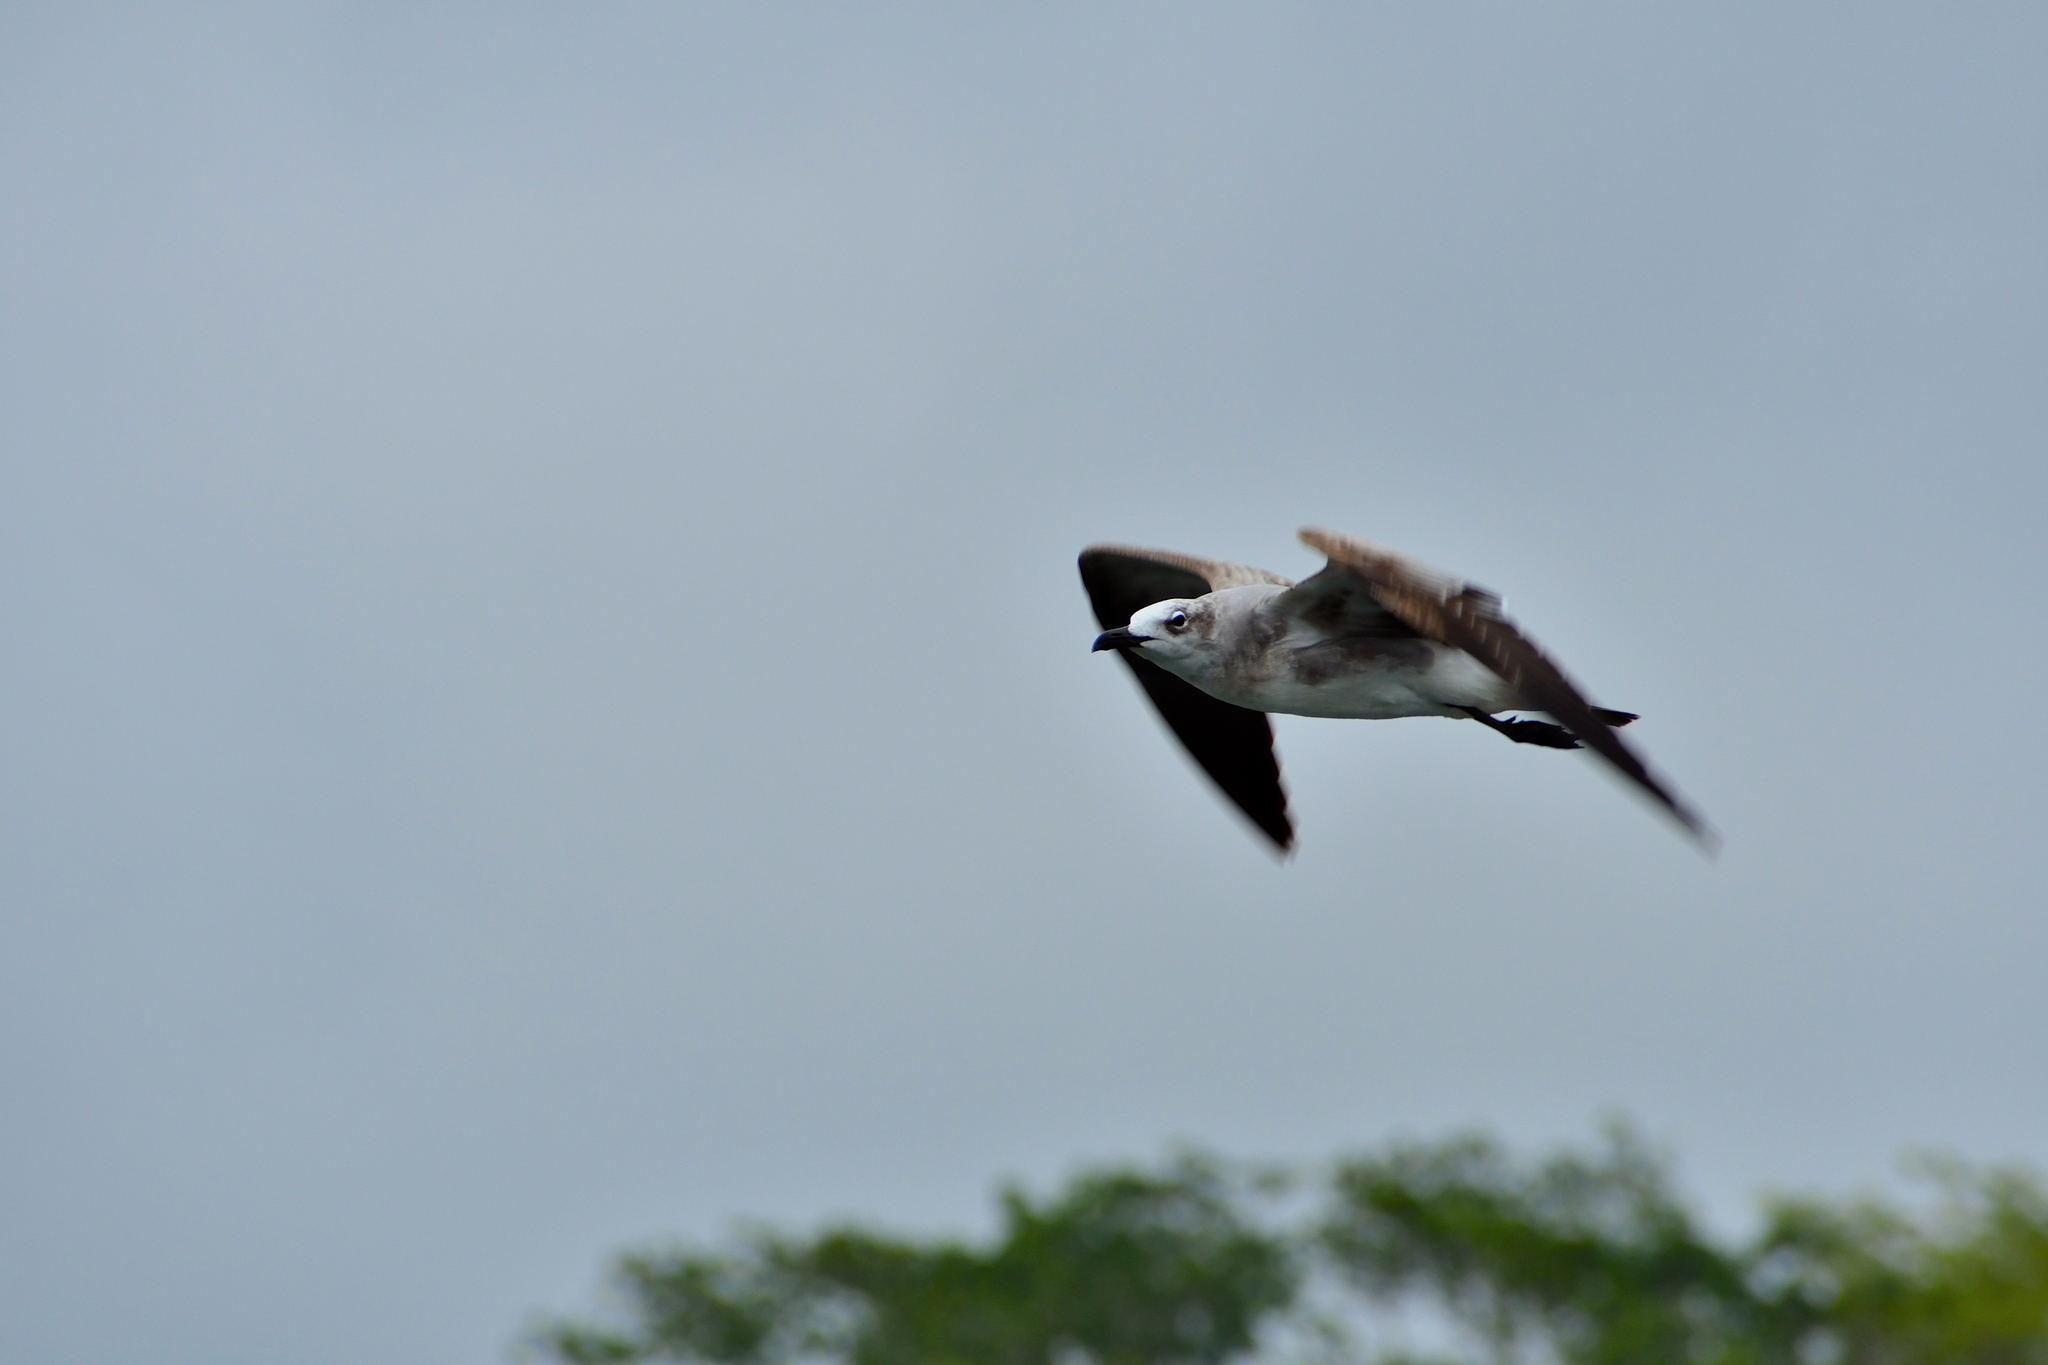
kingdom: Animalia
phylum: Chordata
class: Aves
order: Charadriiformes
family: Laridae
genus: Leucophaeus
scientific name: Leucophaeus atricilla
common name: Laughing gull
